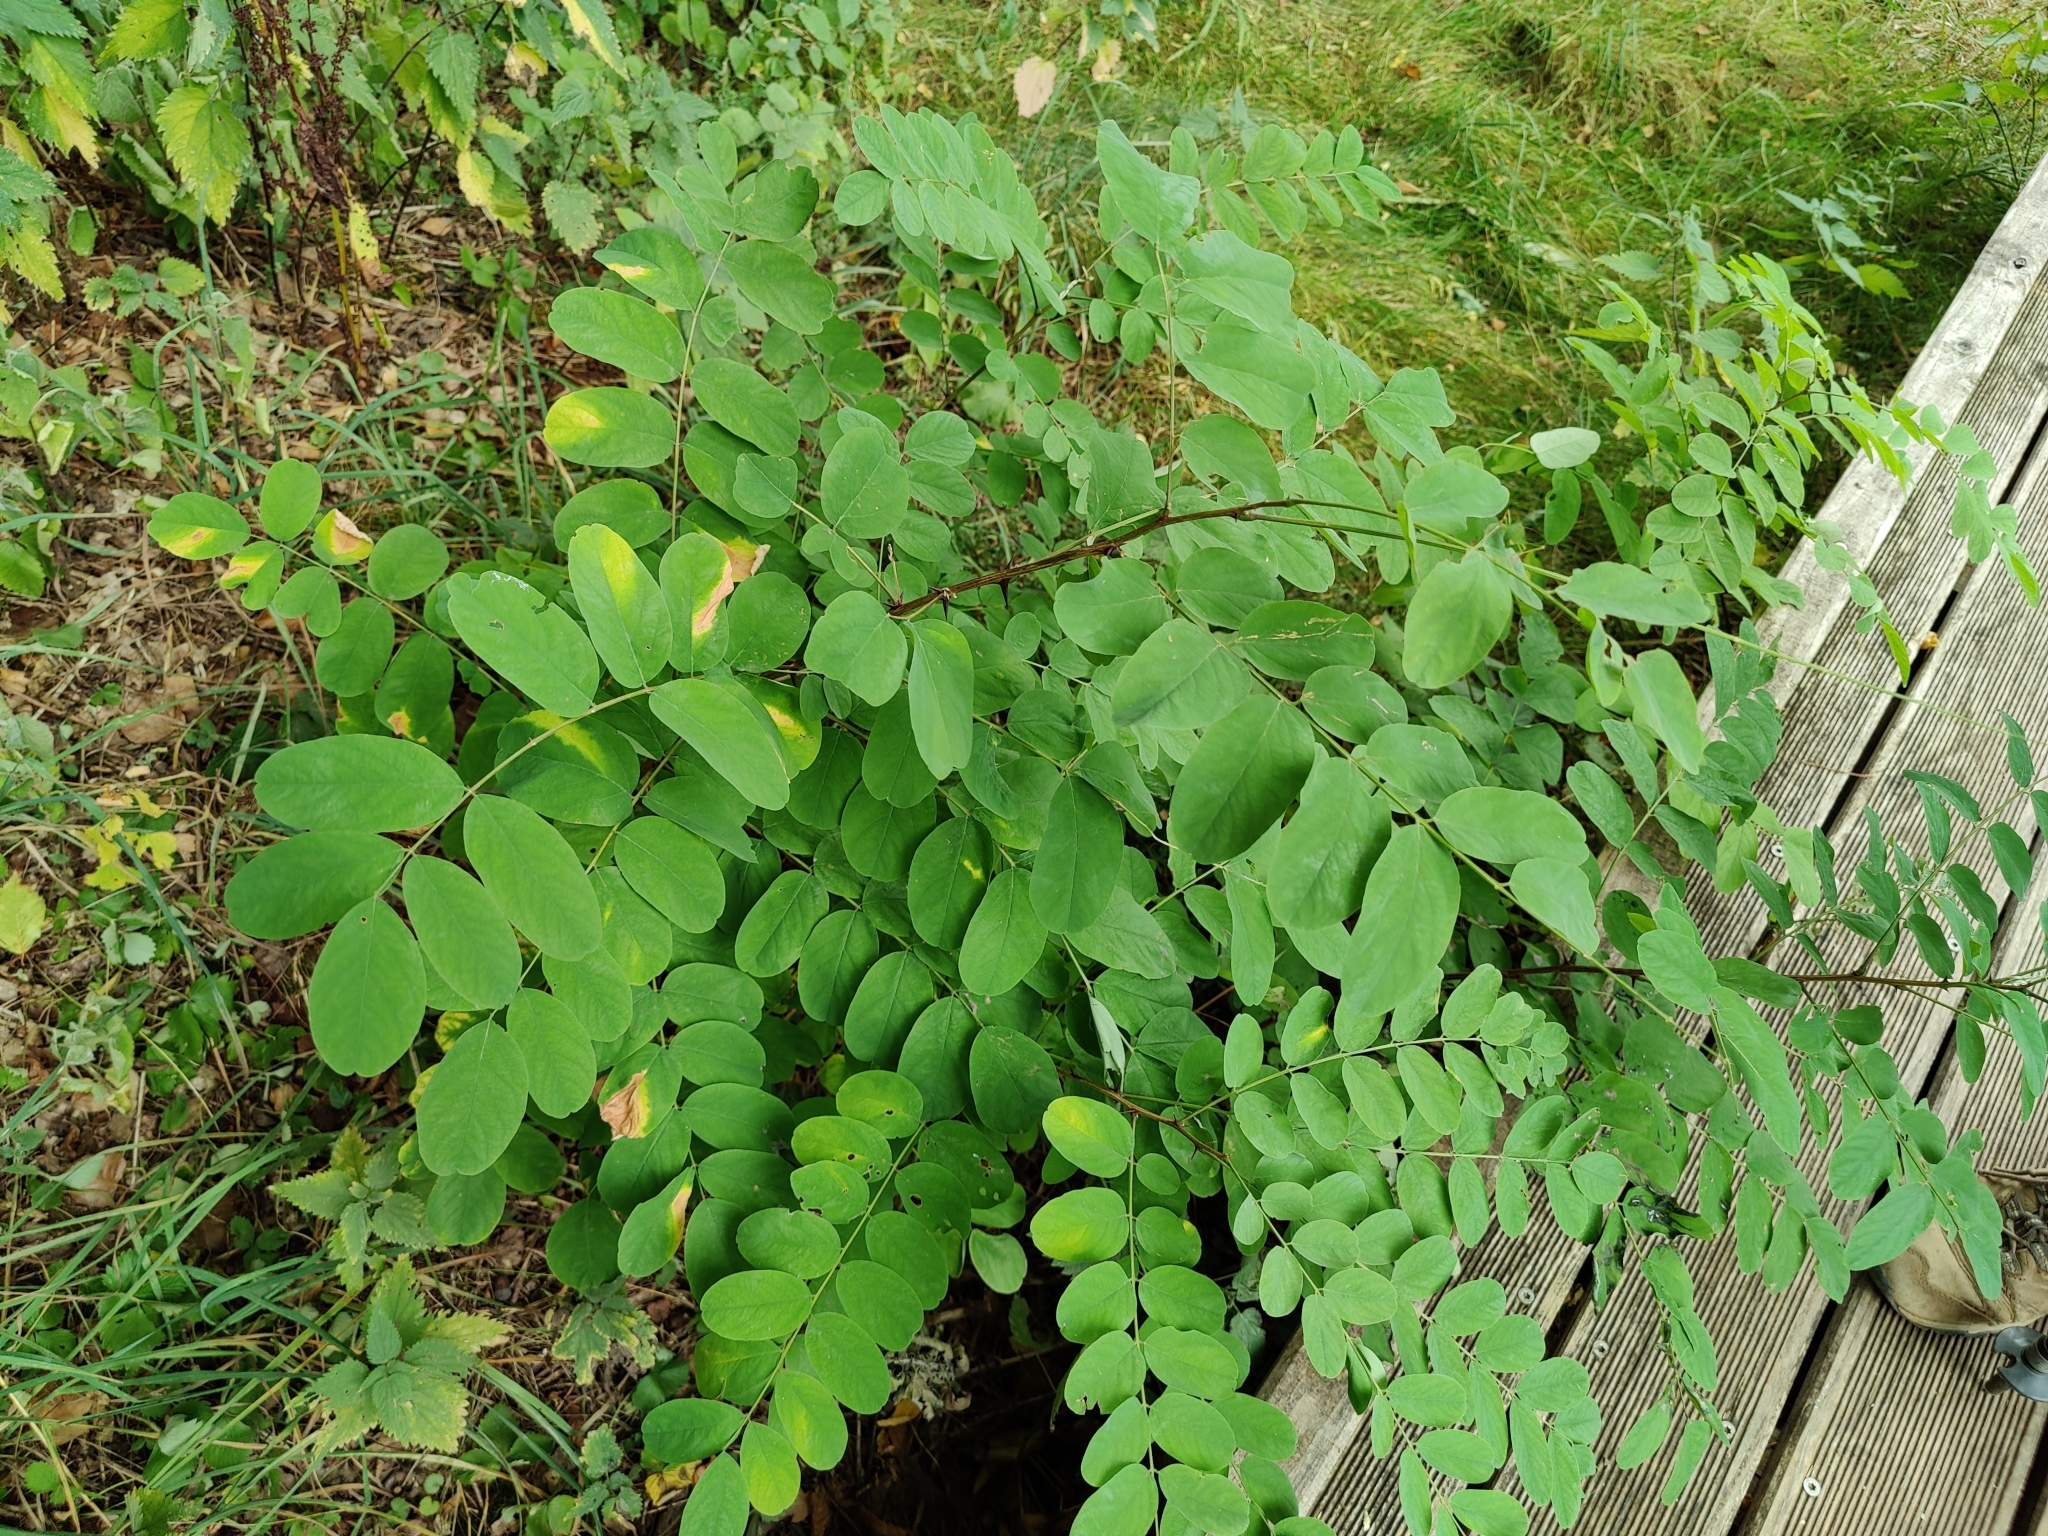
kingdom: Plantae
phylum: Tracheophyta
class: Magnoliopsida
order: Fabales
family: Fabaceae
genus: Robinia
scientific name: Robinia pseudoacacia
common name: Black locust
